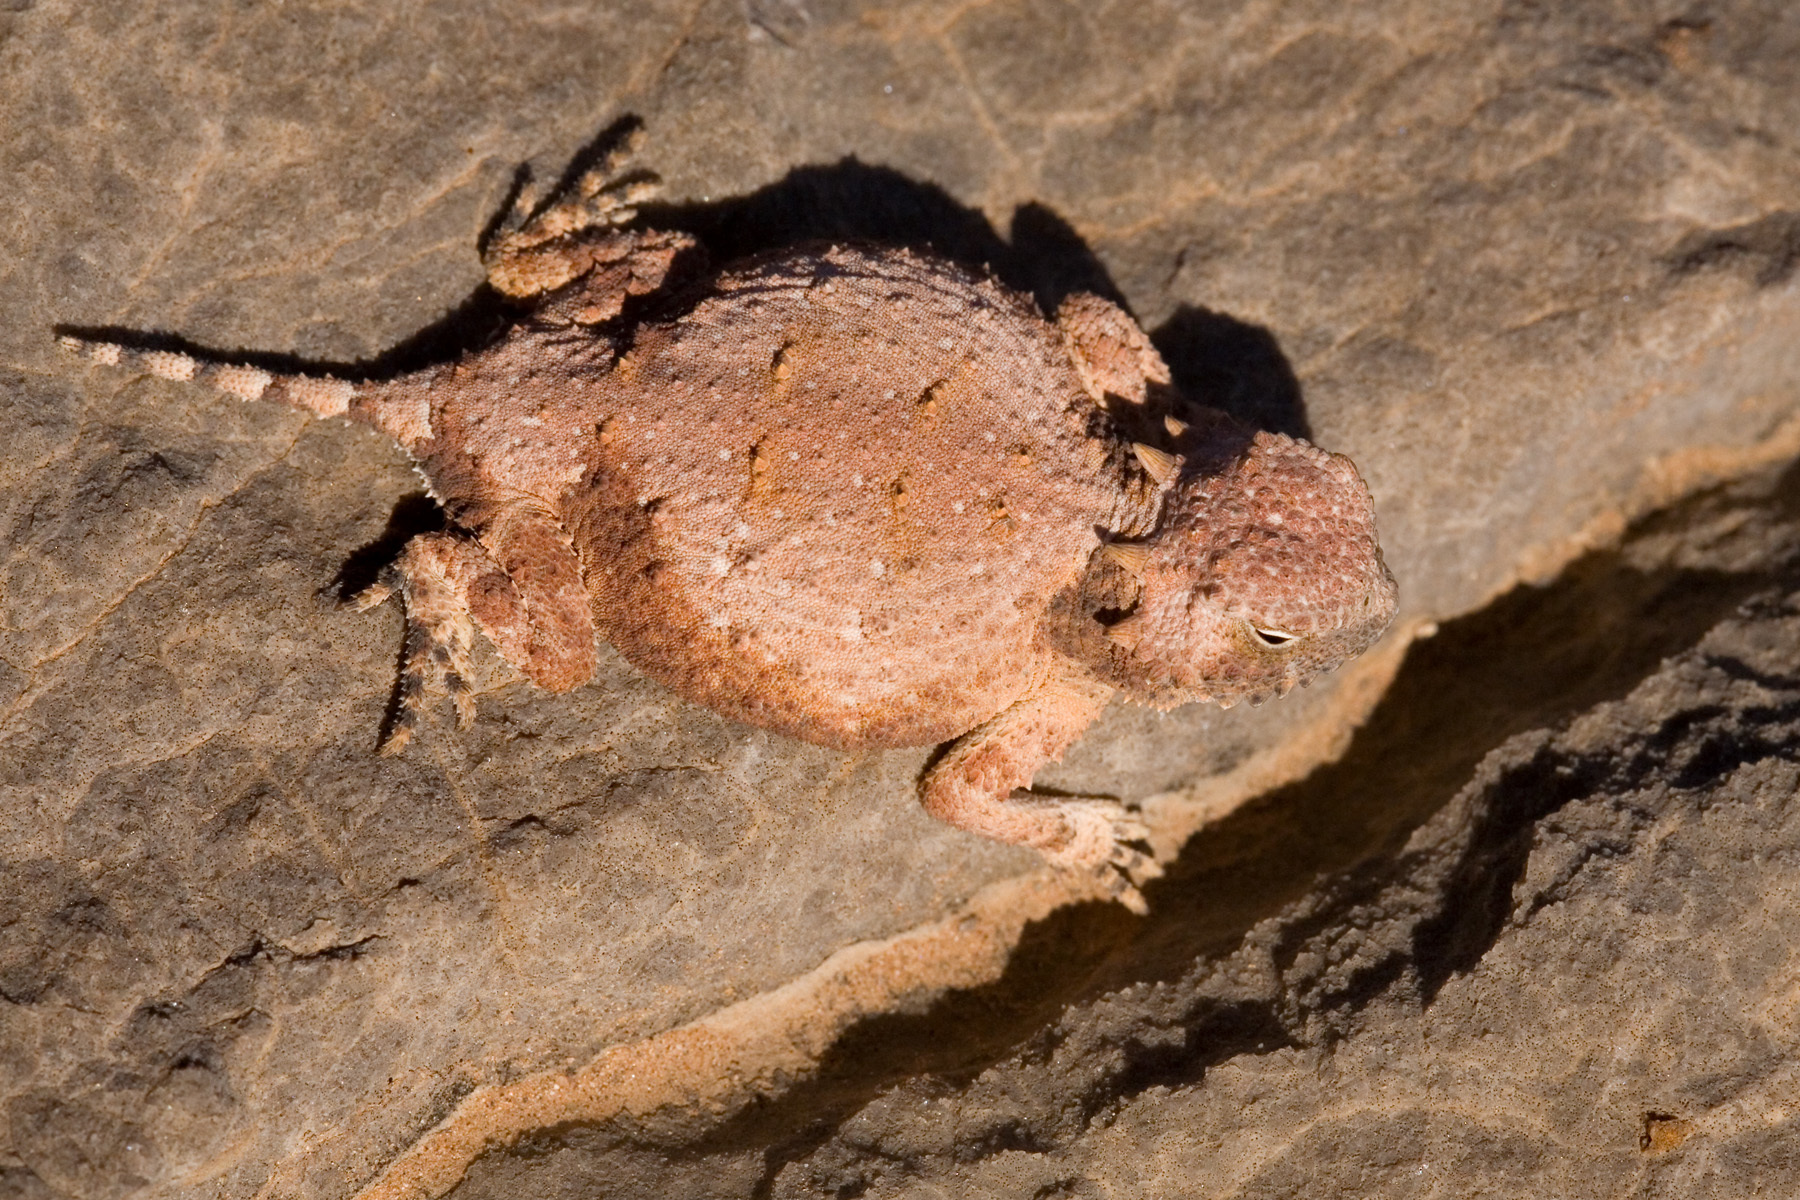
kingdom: Animalia
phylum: Chordata
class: Squamata
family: Phrynosomatidae
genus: Phrynosoma
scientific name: Phrynosoma modestum
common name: Roundtail horned lizard
